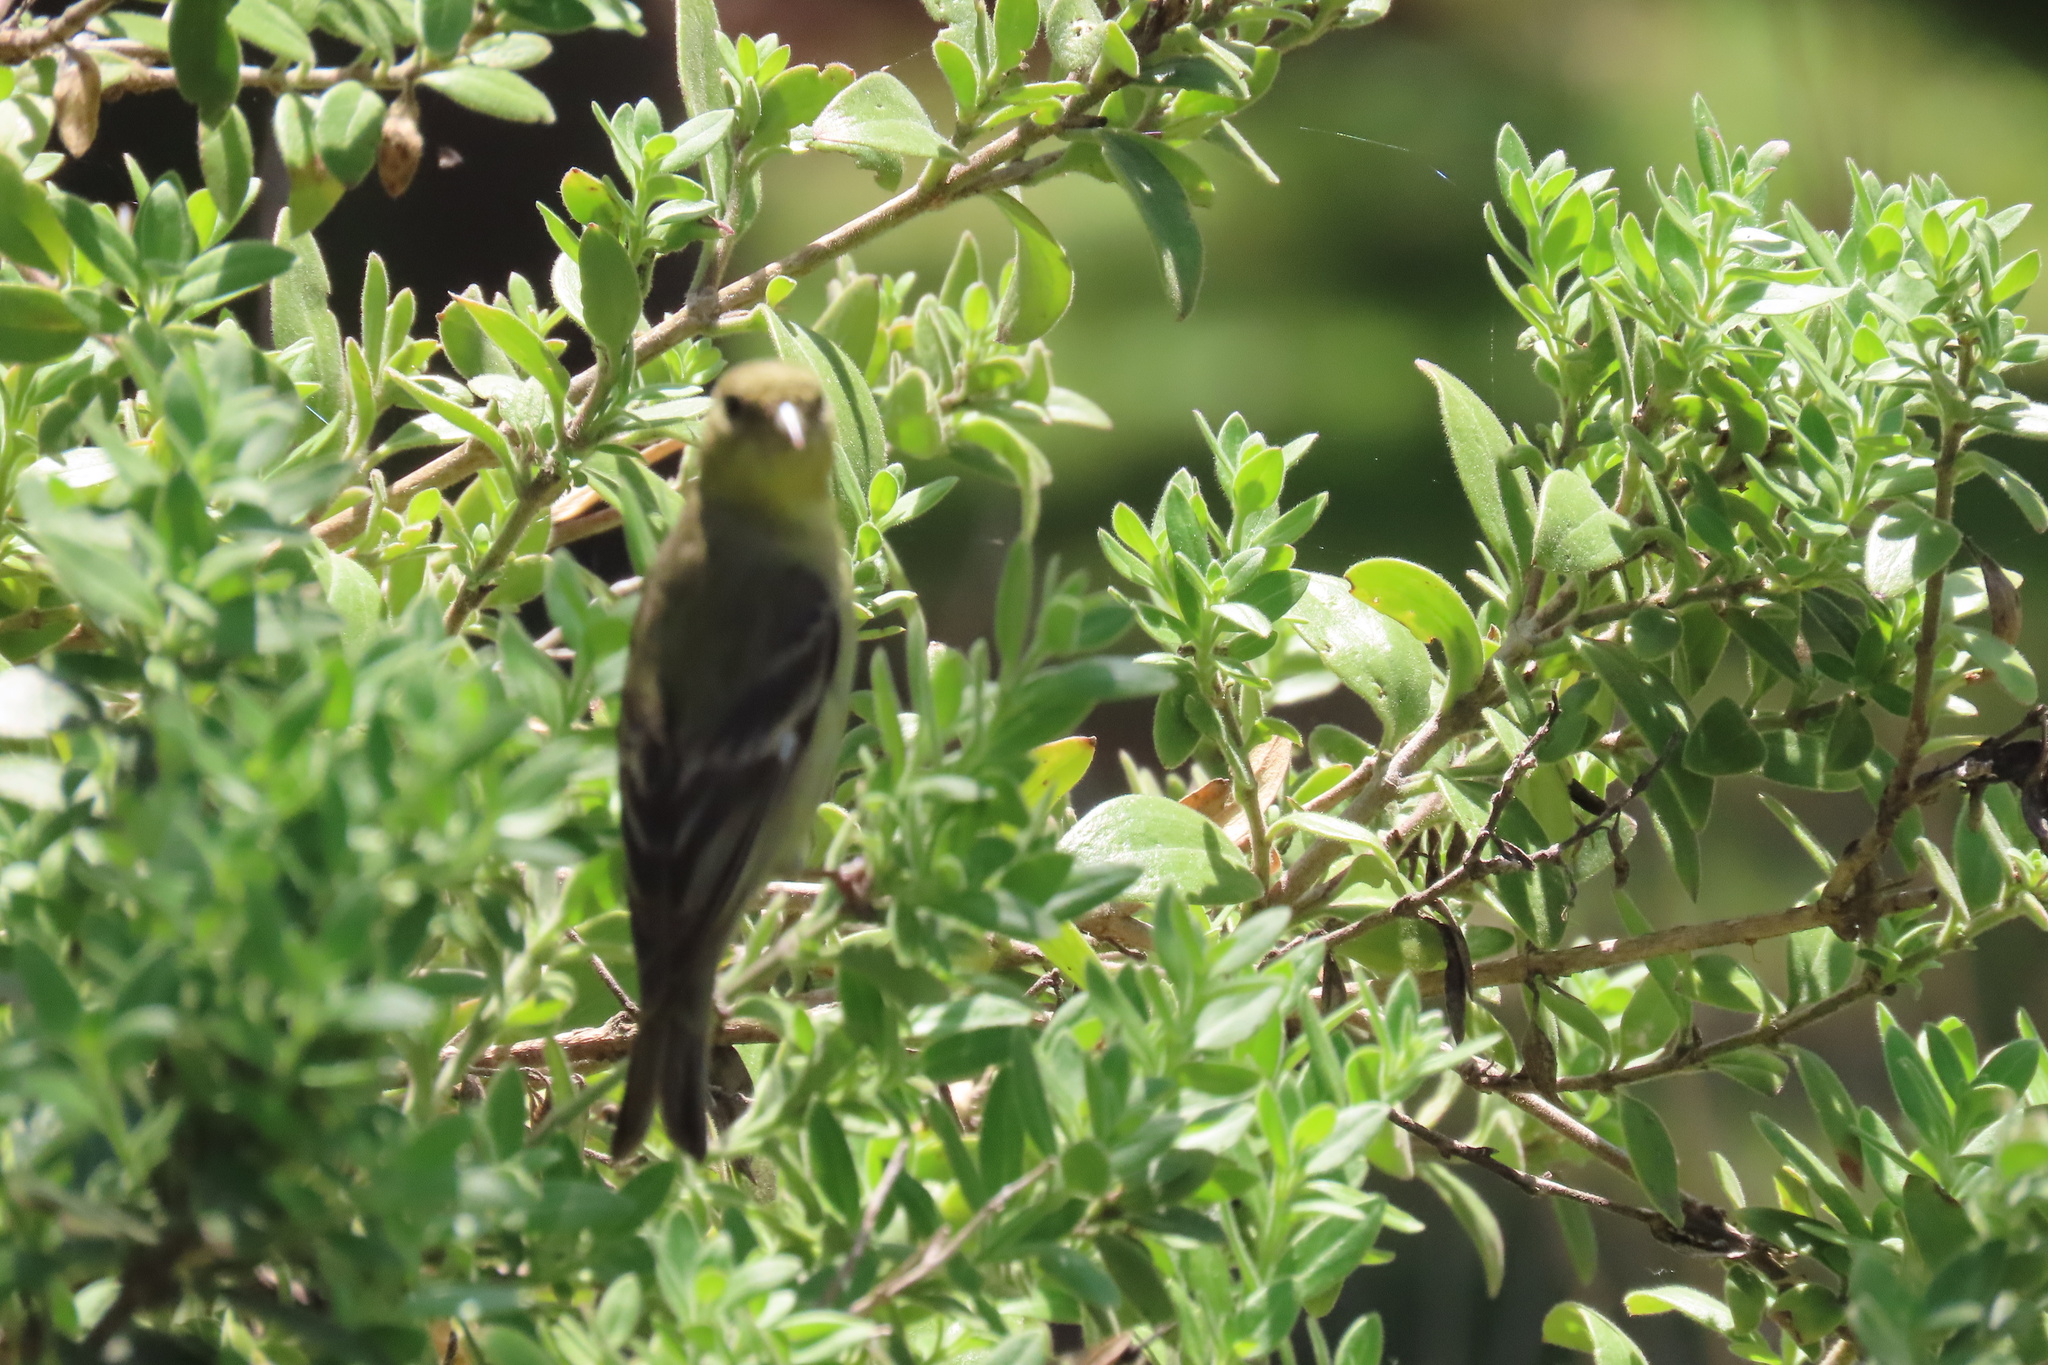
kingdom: Animalia
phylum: Chordata
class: Aves
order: Passeriformes
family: Fringillidae
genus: Spinus
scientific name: Spinus psaltria
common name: Lesser goldfinch
